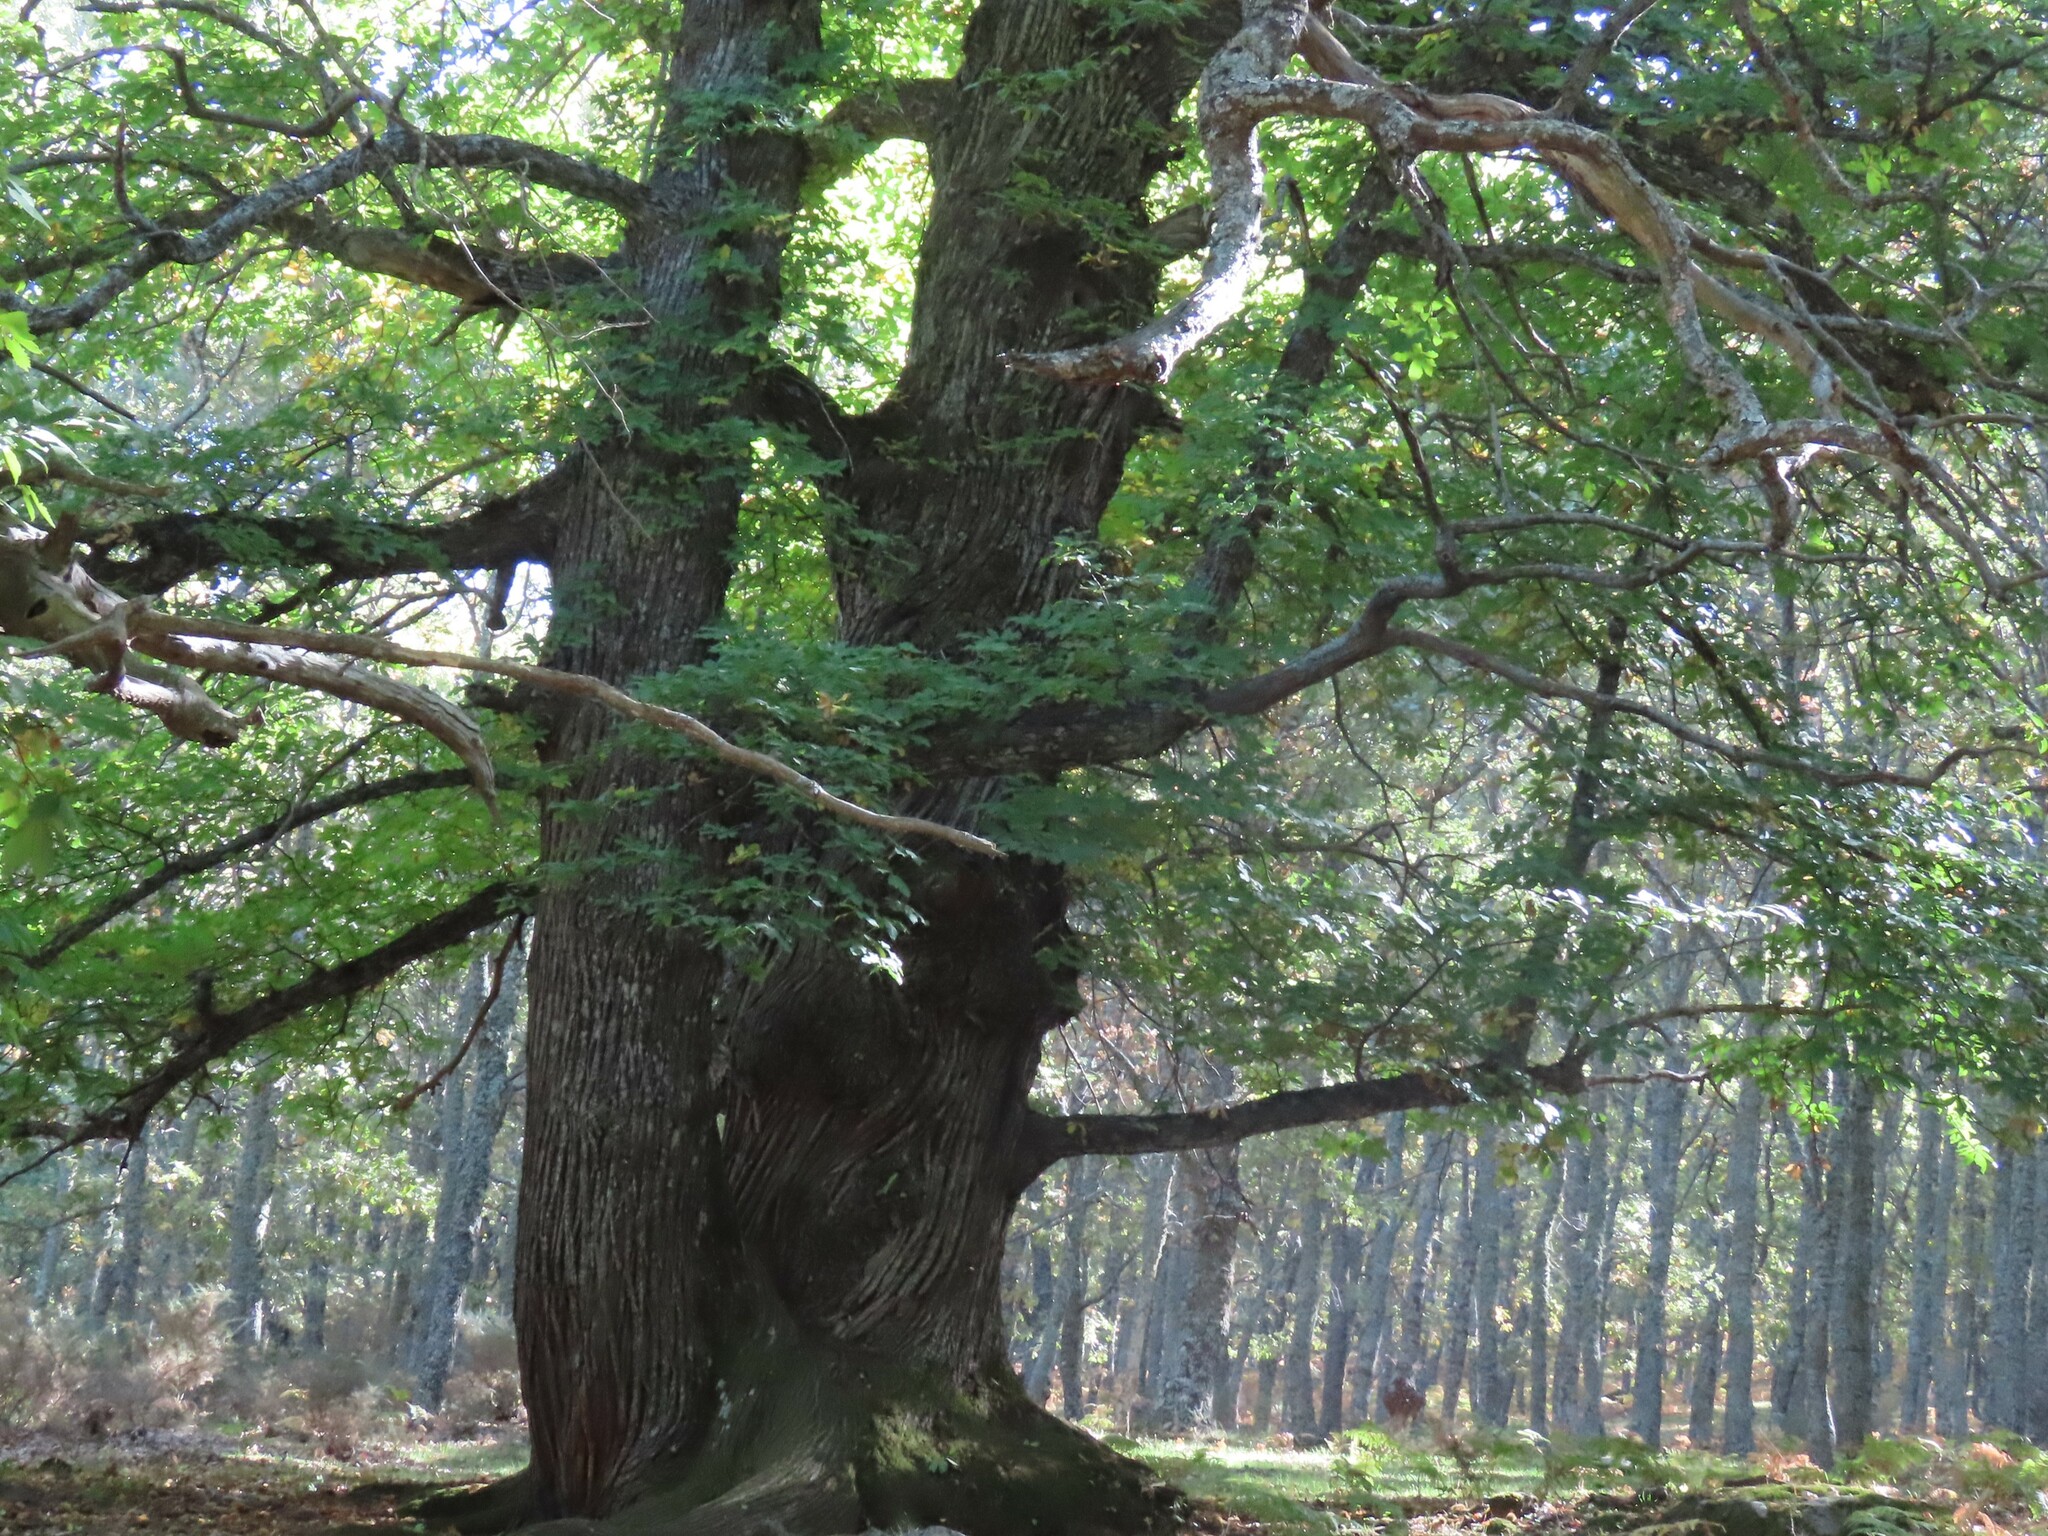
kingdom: Plantae
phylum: Tracheophyta
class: Magnoliopsida
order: Fagales
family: Fagaceae
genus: Castanea
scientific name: Castanea sativa
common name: Sweet chestnut
